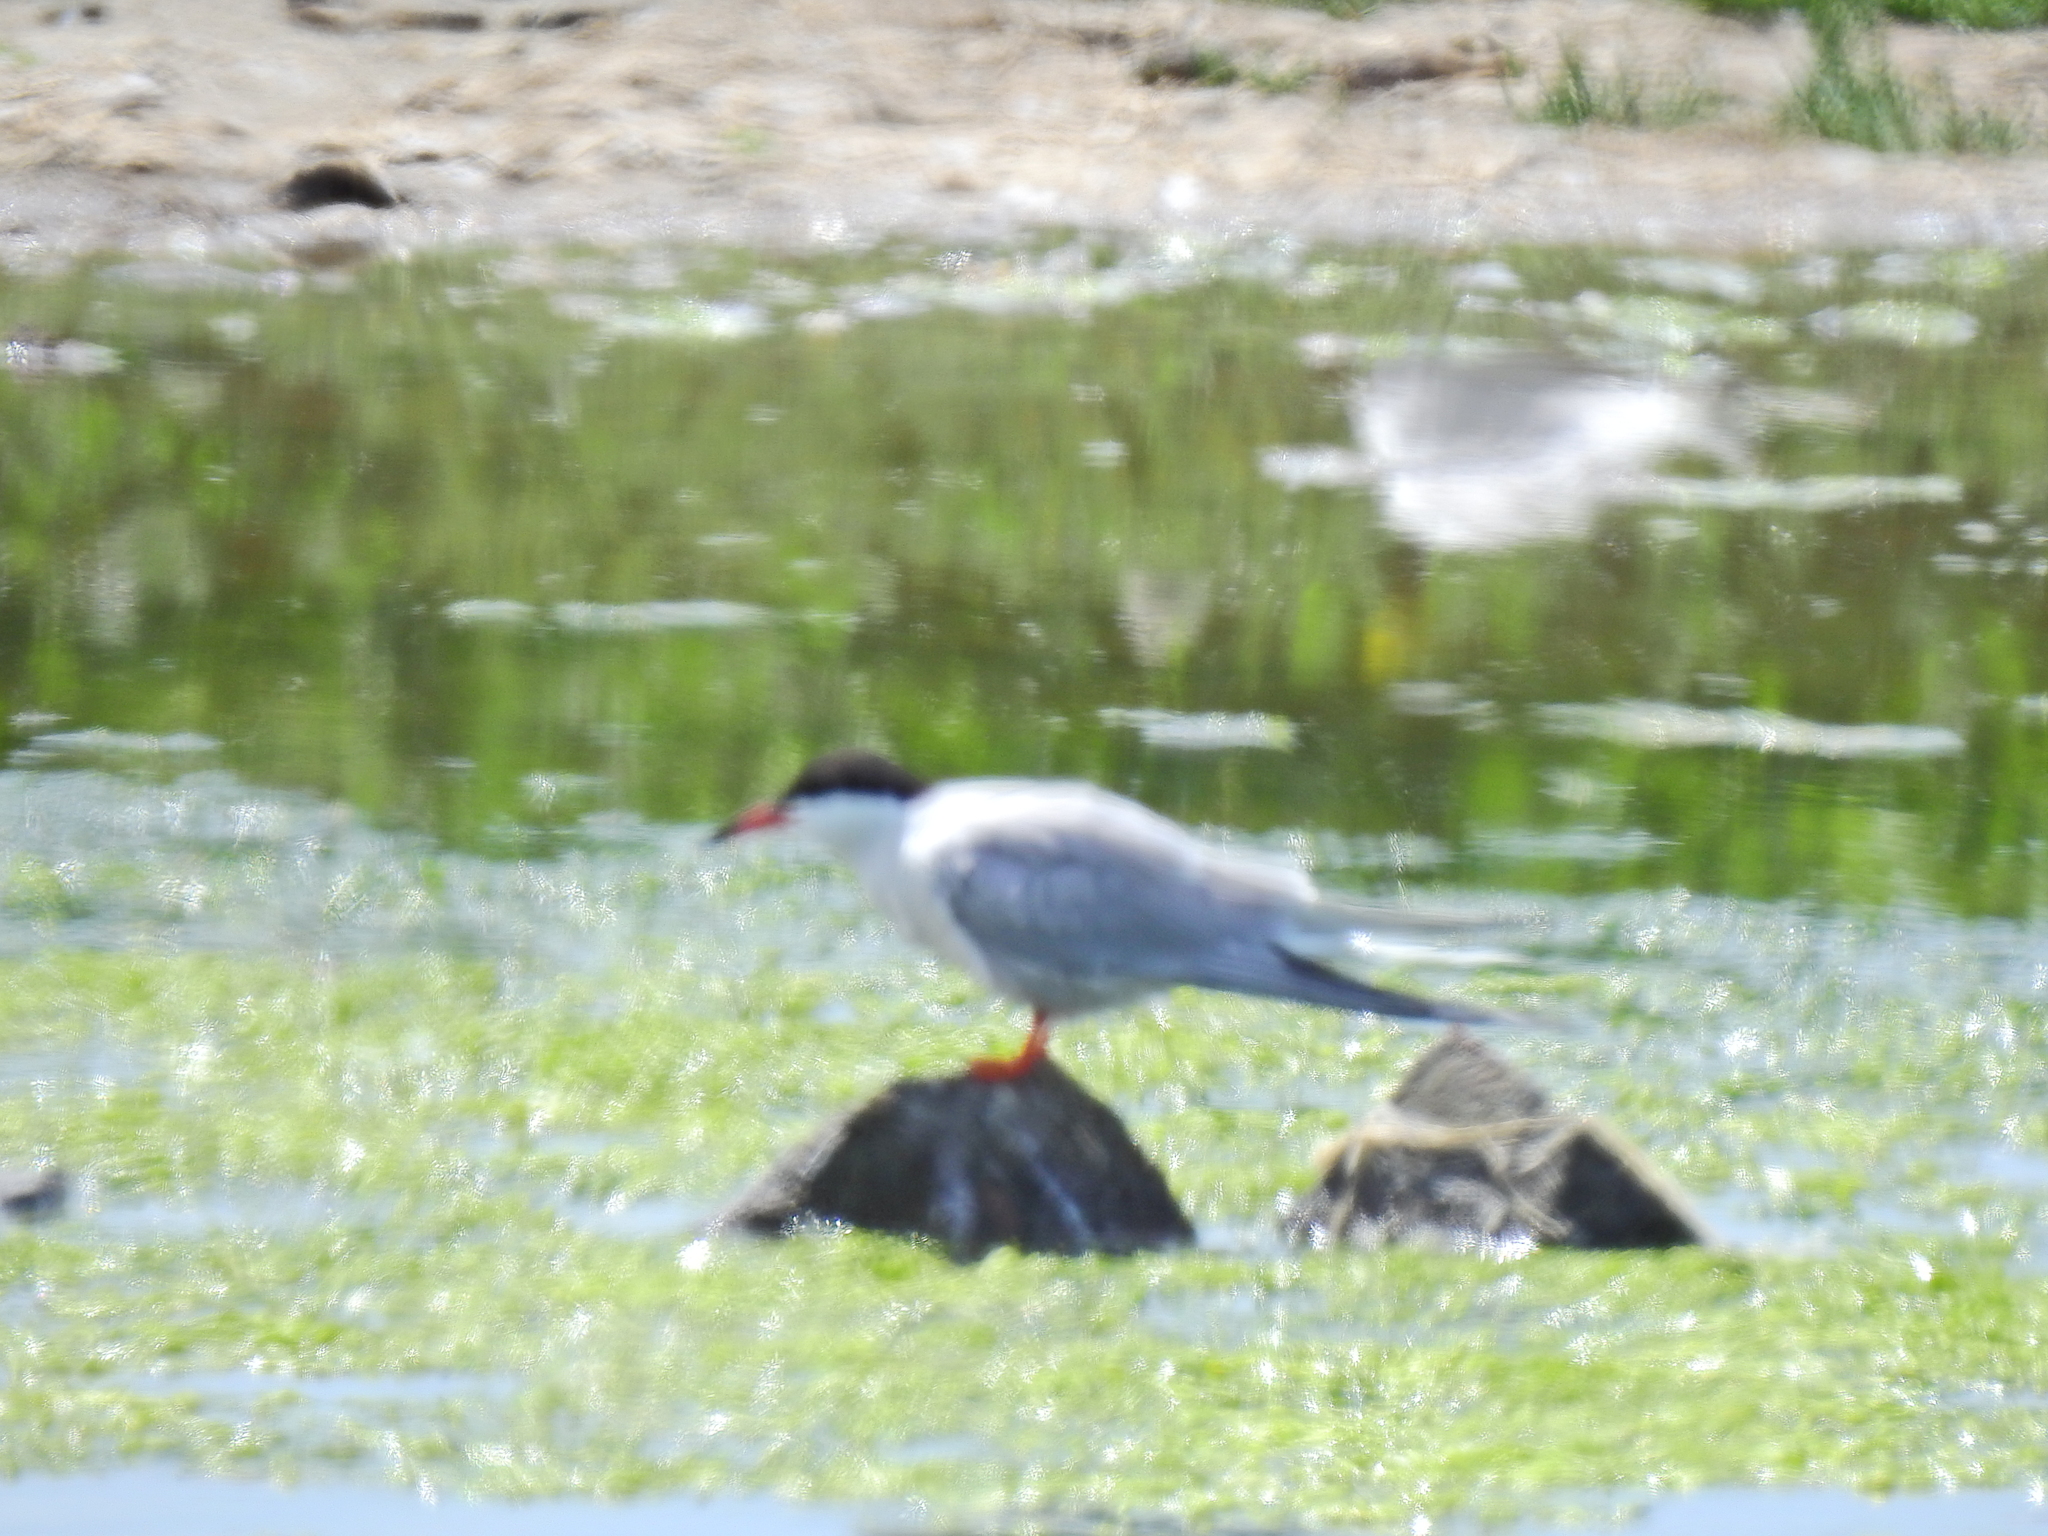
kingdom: Animalia
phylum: Chordata
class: Aves
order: Charadriiformes
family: Laridae
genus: Sterna
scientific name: Sterna hirundo
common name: Common tern
